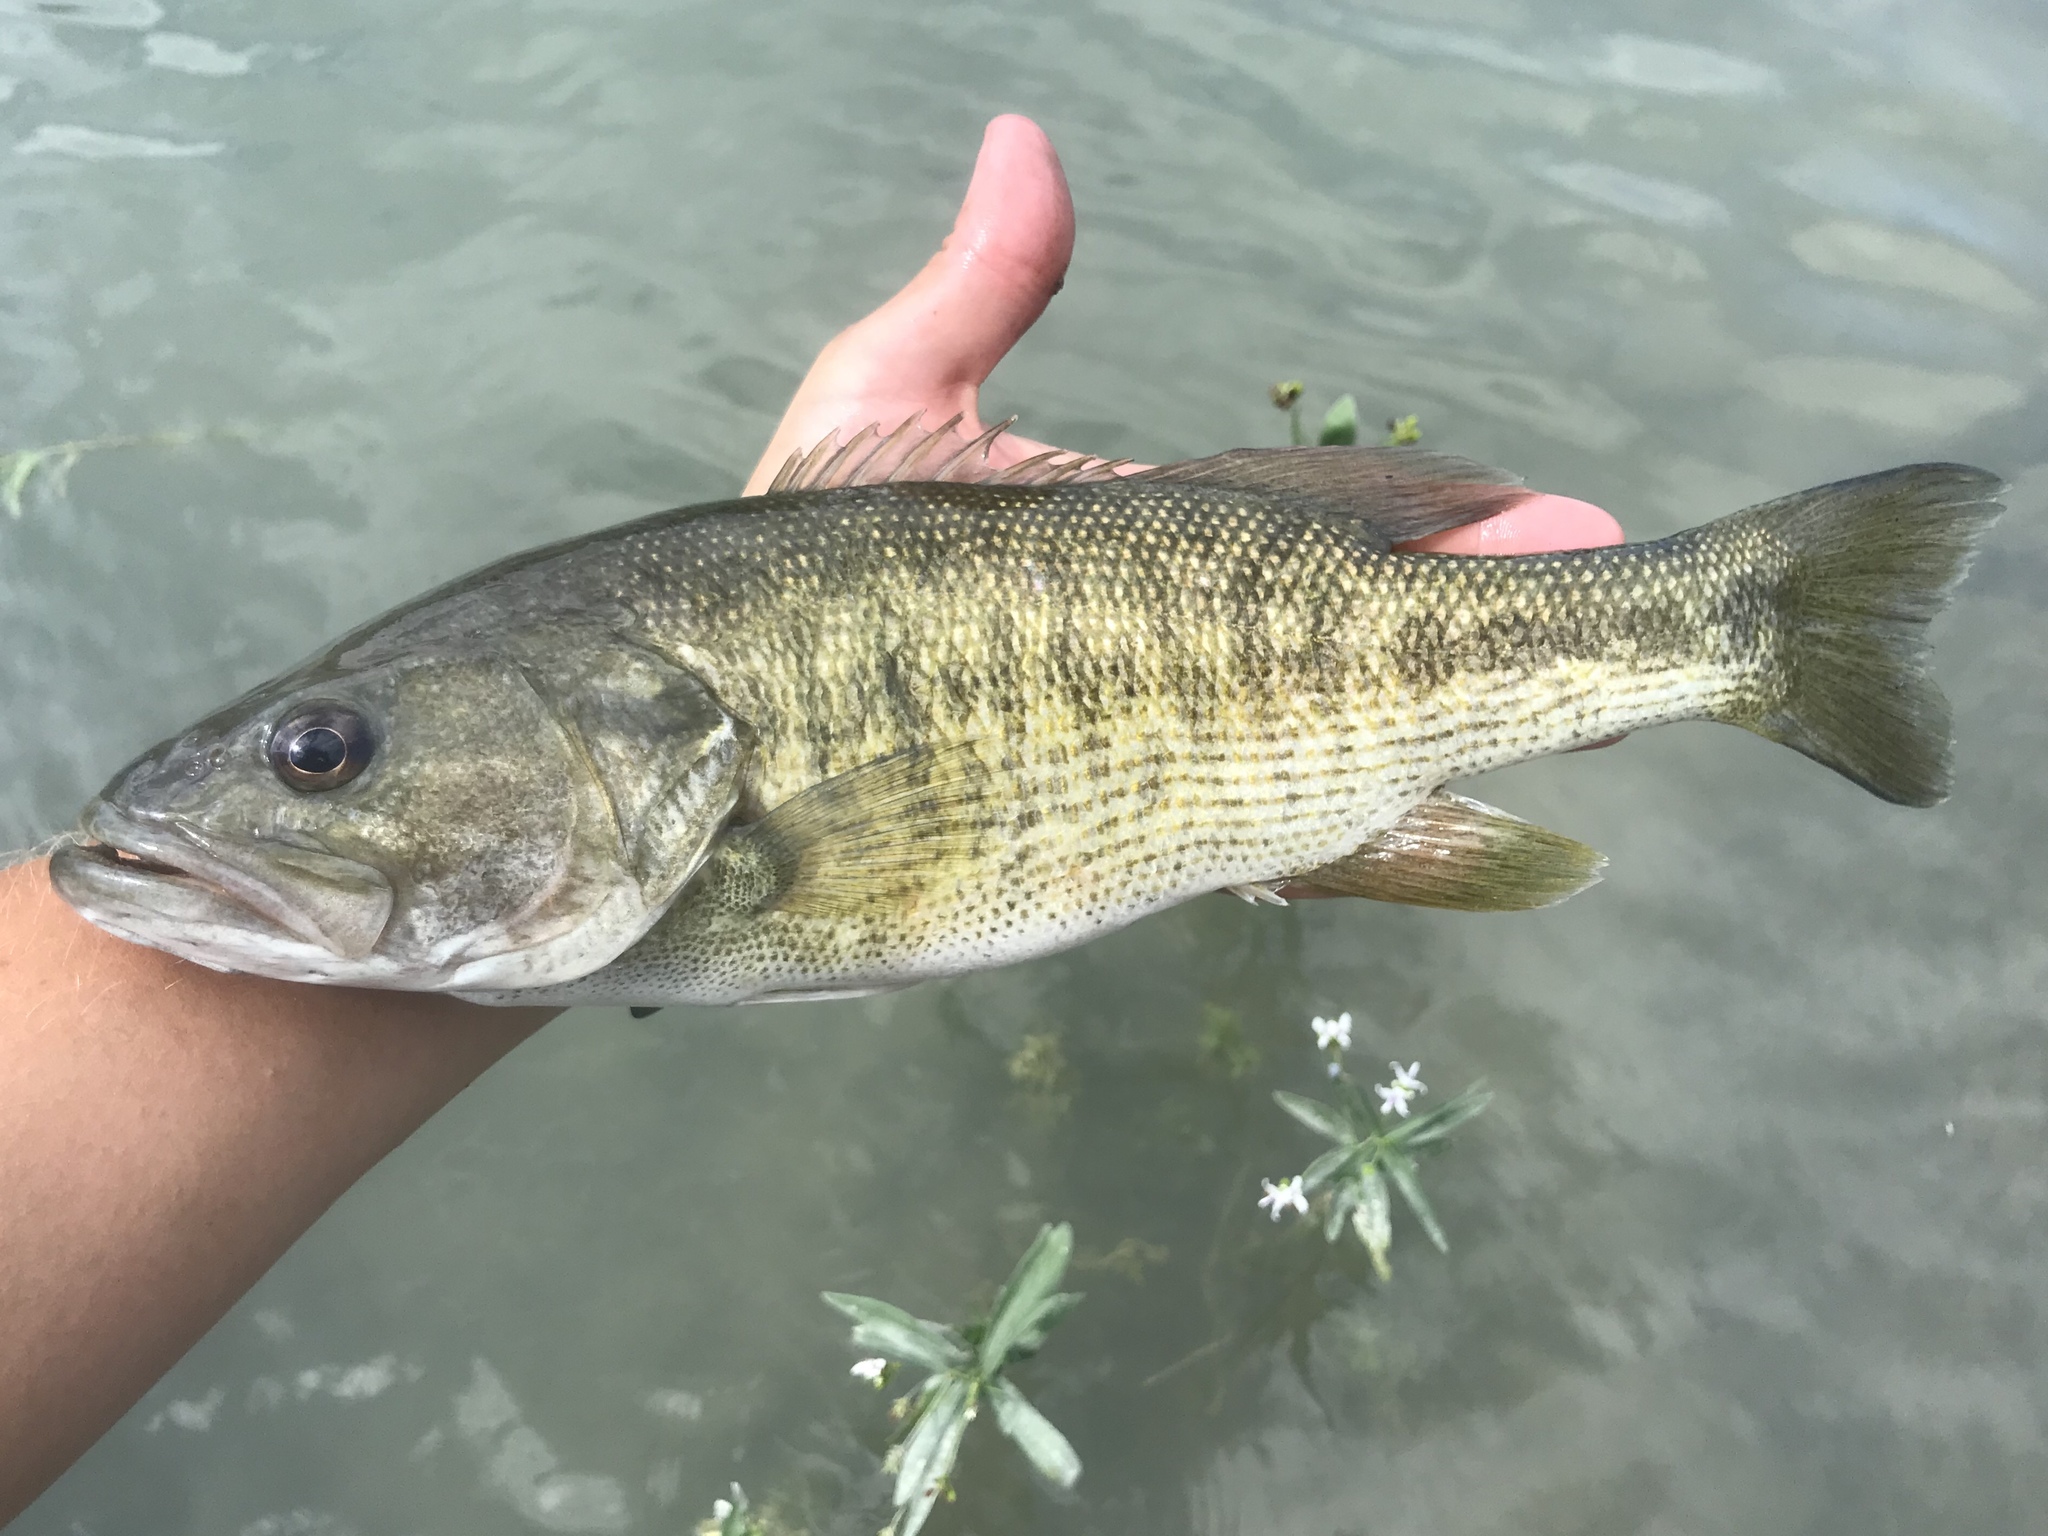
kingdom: Animalia
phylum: Chordata
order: Perciformes
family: Centrarchidae
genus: Micropterus
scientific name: Micropterus treculii
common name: Guadalupe bass
